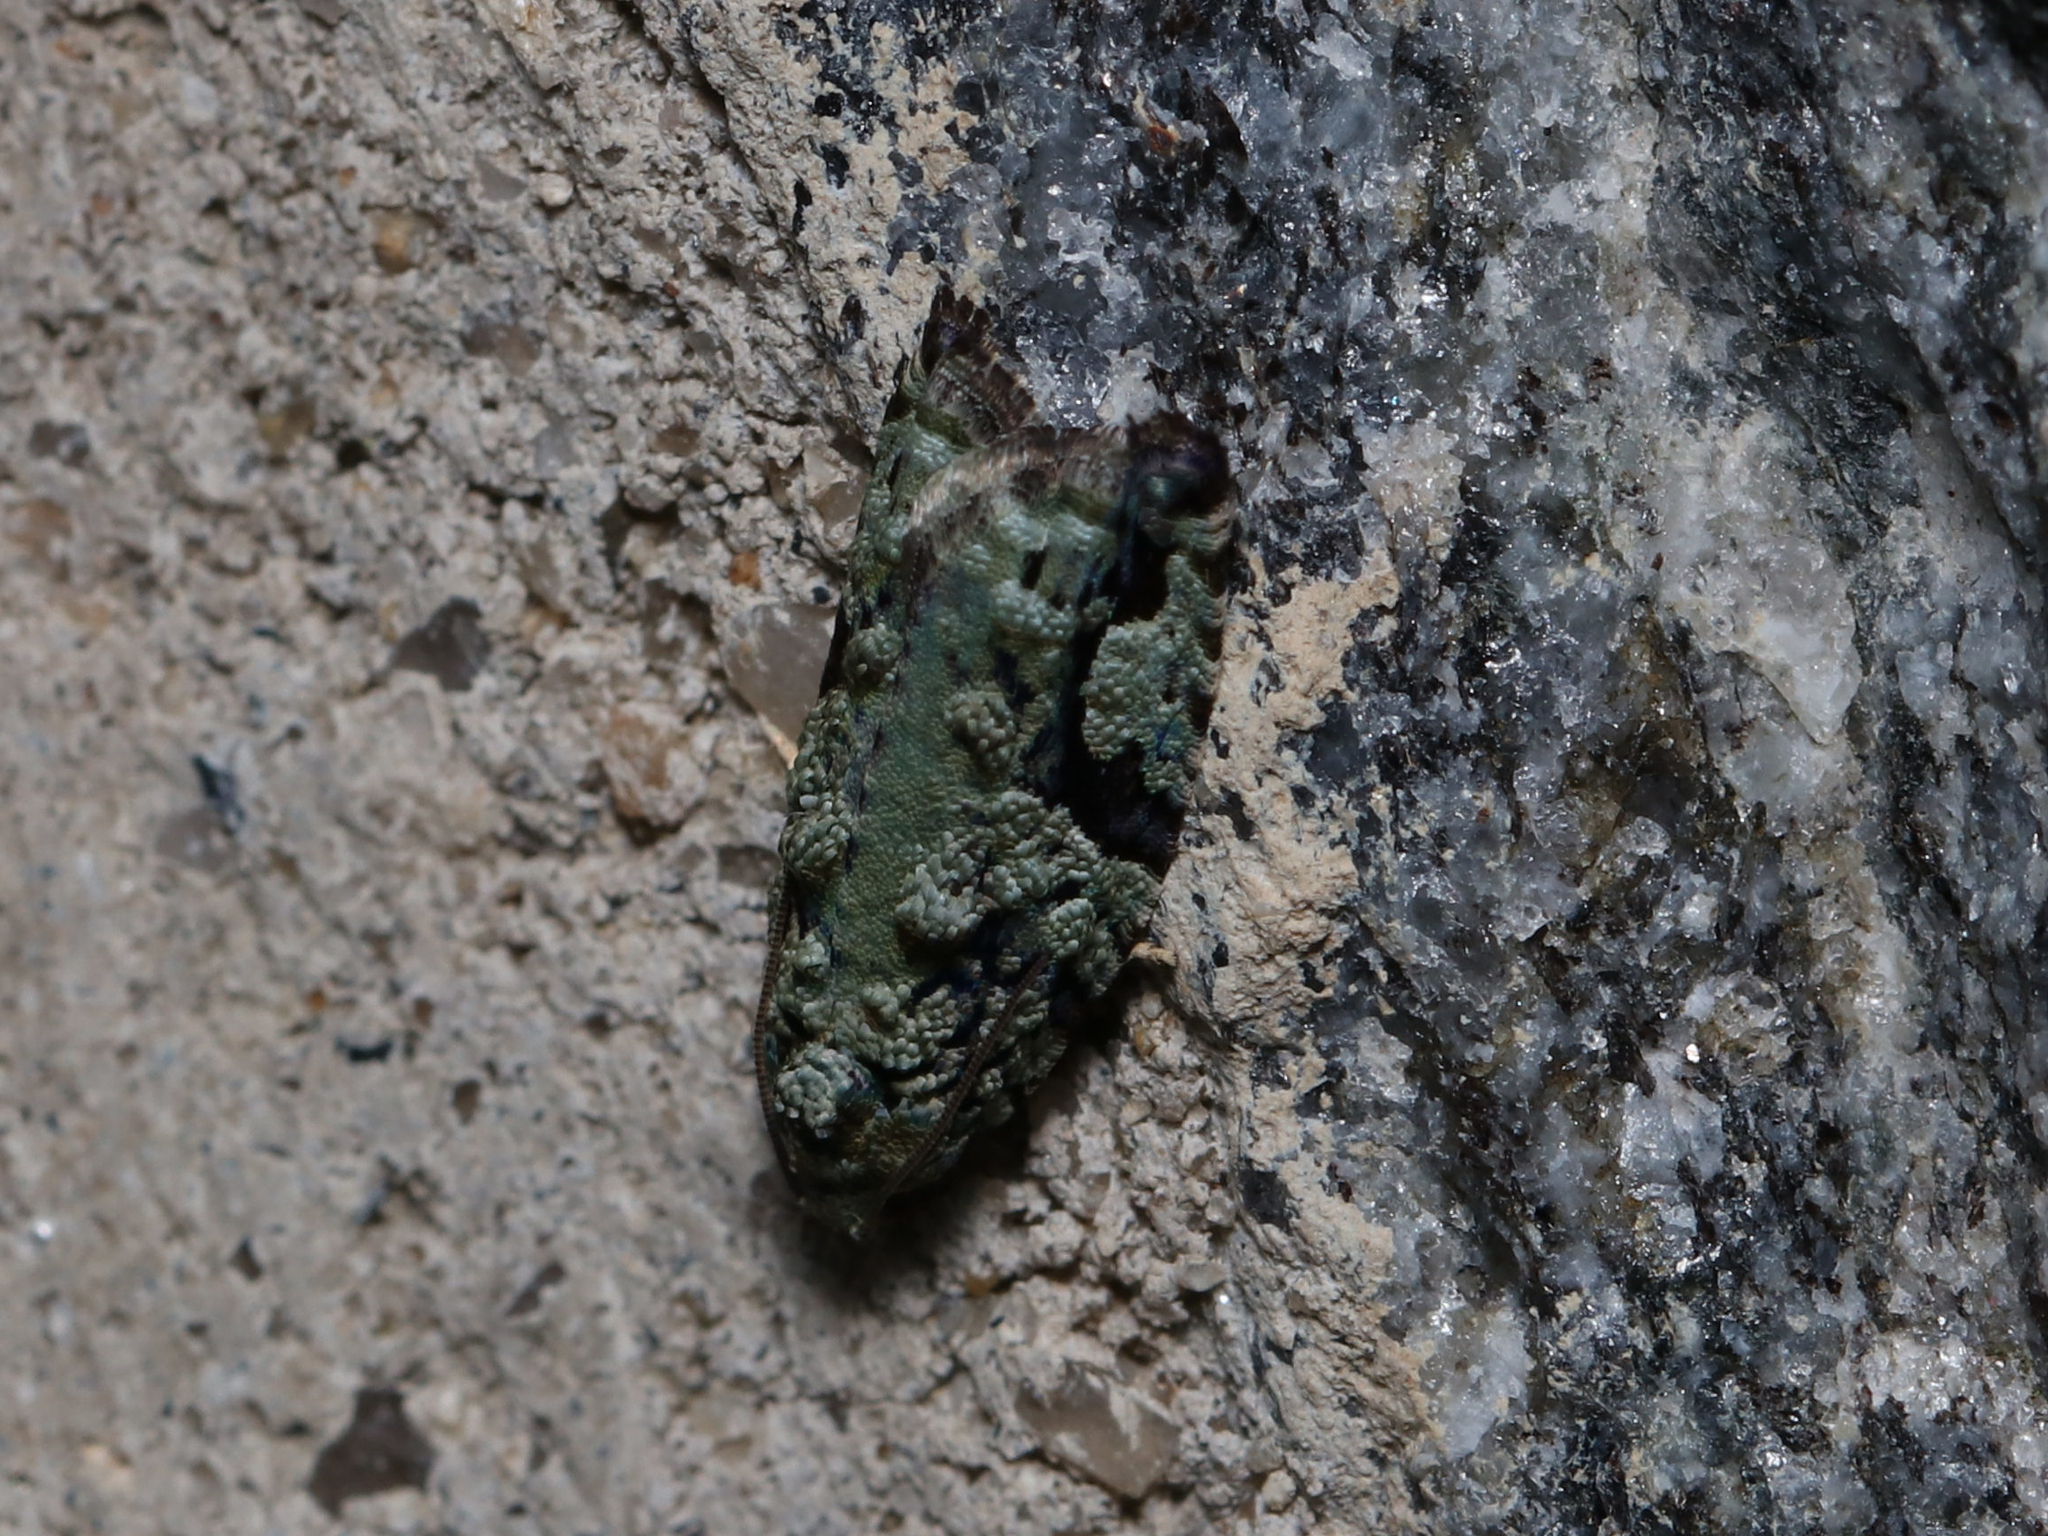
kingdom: Animalia
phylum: Arthropoda
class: Insecta
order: Lepidoptera
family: Tortricidae
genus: Proteoteras
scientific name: Proteoteras moffatiana
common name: Maple bud borer moth
